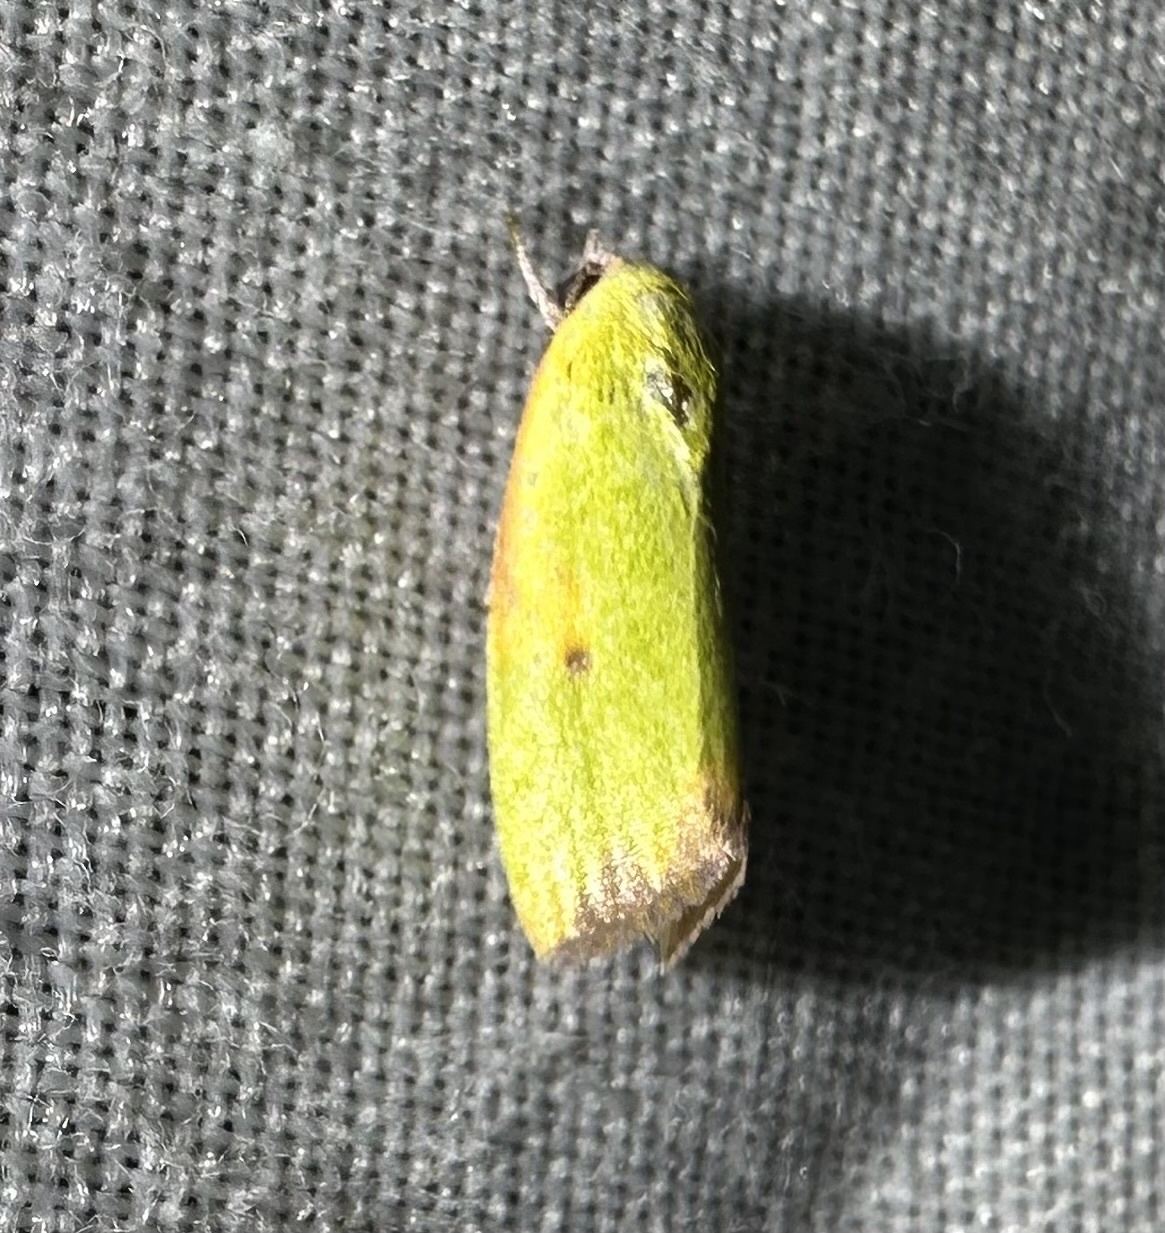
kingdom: Animalia
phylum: Arthropoda
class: Insecta
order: Lepidoptera
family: Nolidae
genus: Earias
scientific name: Earias cupreoviridis
